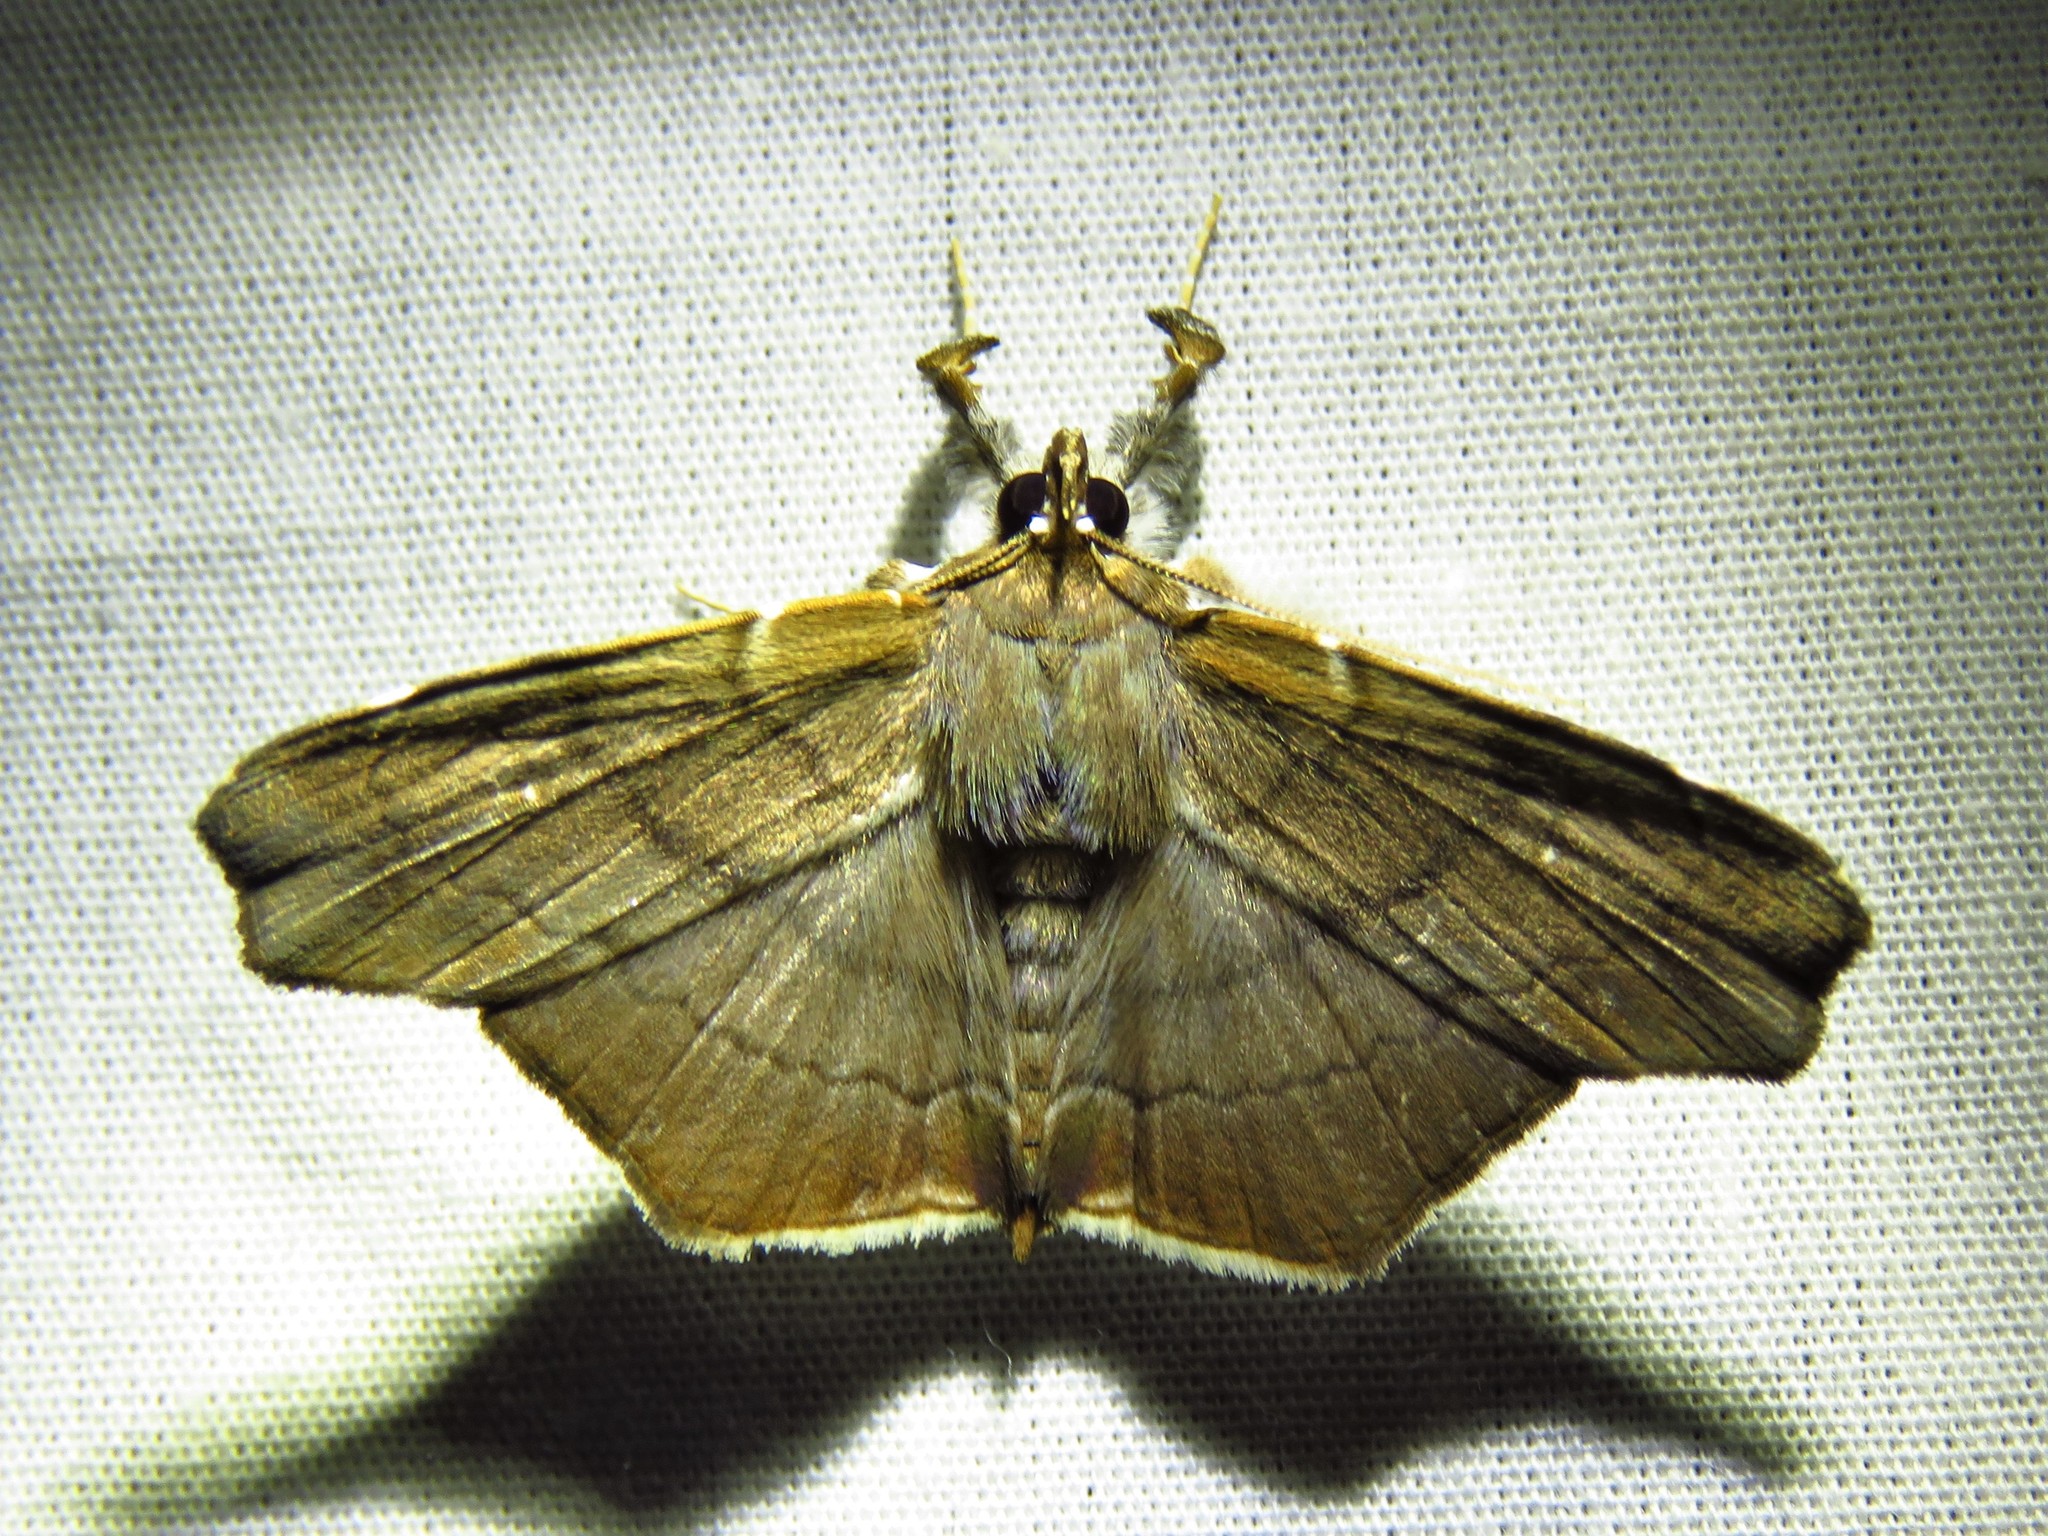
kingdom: Animalia
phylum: Arthropoda
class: Insecta
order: Lepidoptera
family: Erebidae
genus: Gracilodes
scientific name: Gracilodes nysa
